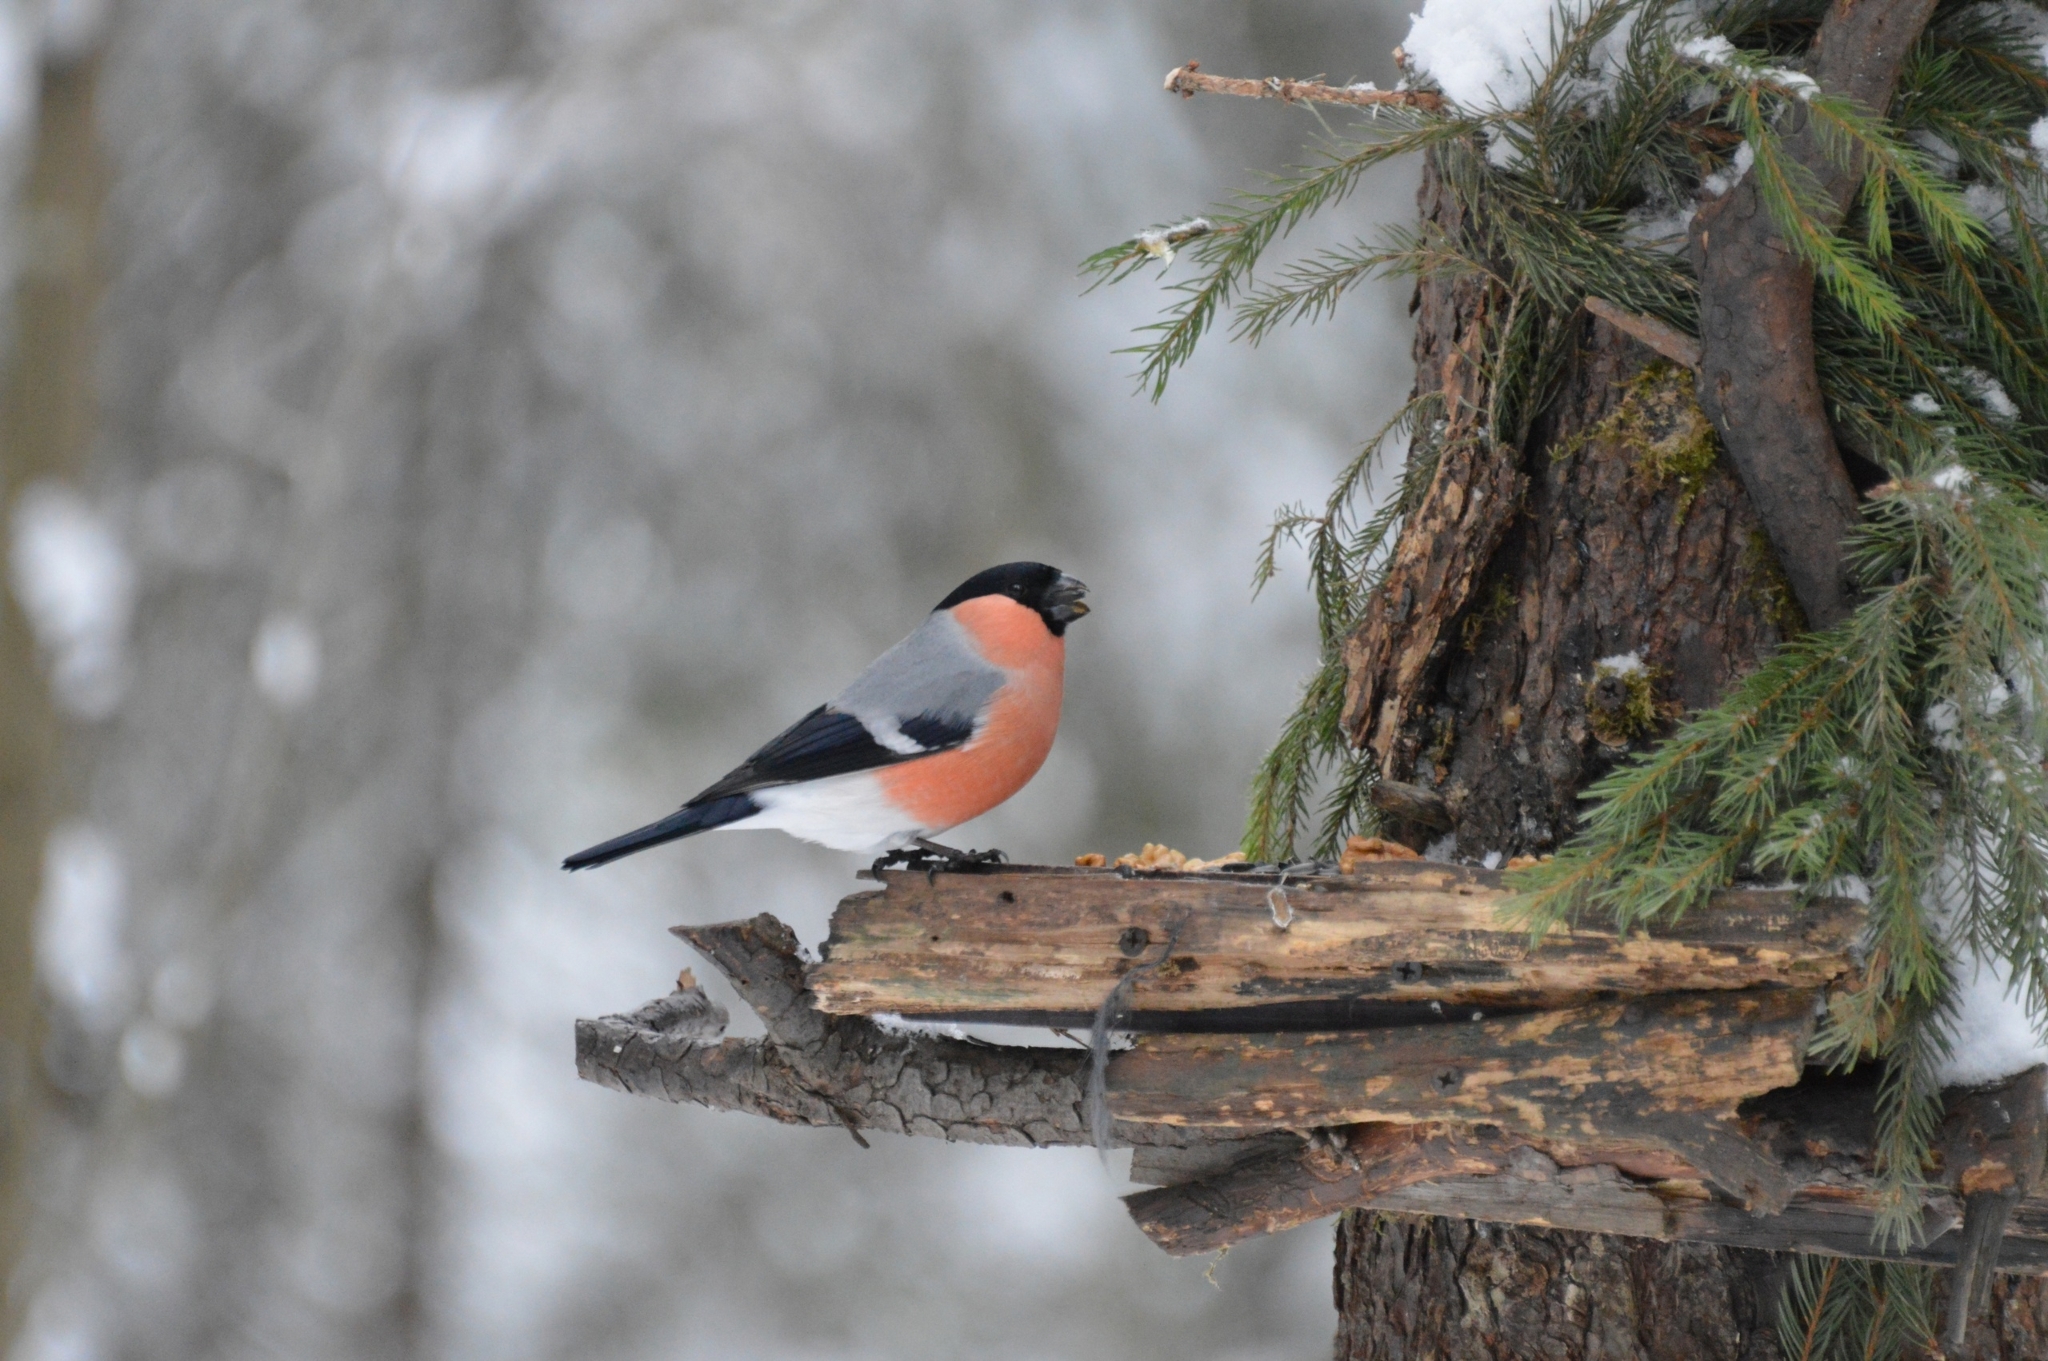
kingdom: Animalia
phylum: Chordata
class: Aves
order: Passeriformes
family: Fringillidae
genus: Pyrrhula
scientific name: Pyrrhula pyrrhula
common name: Eurasian bullfinch
